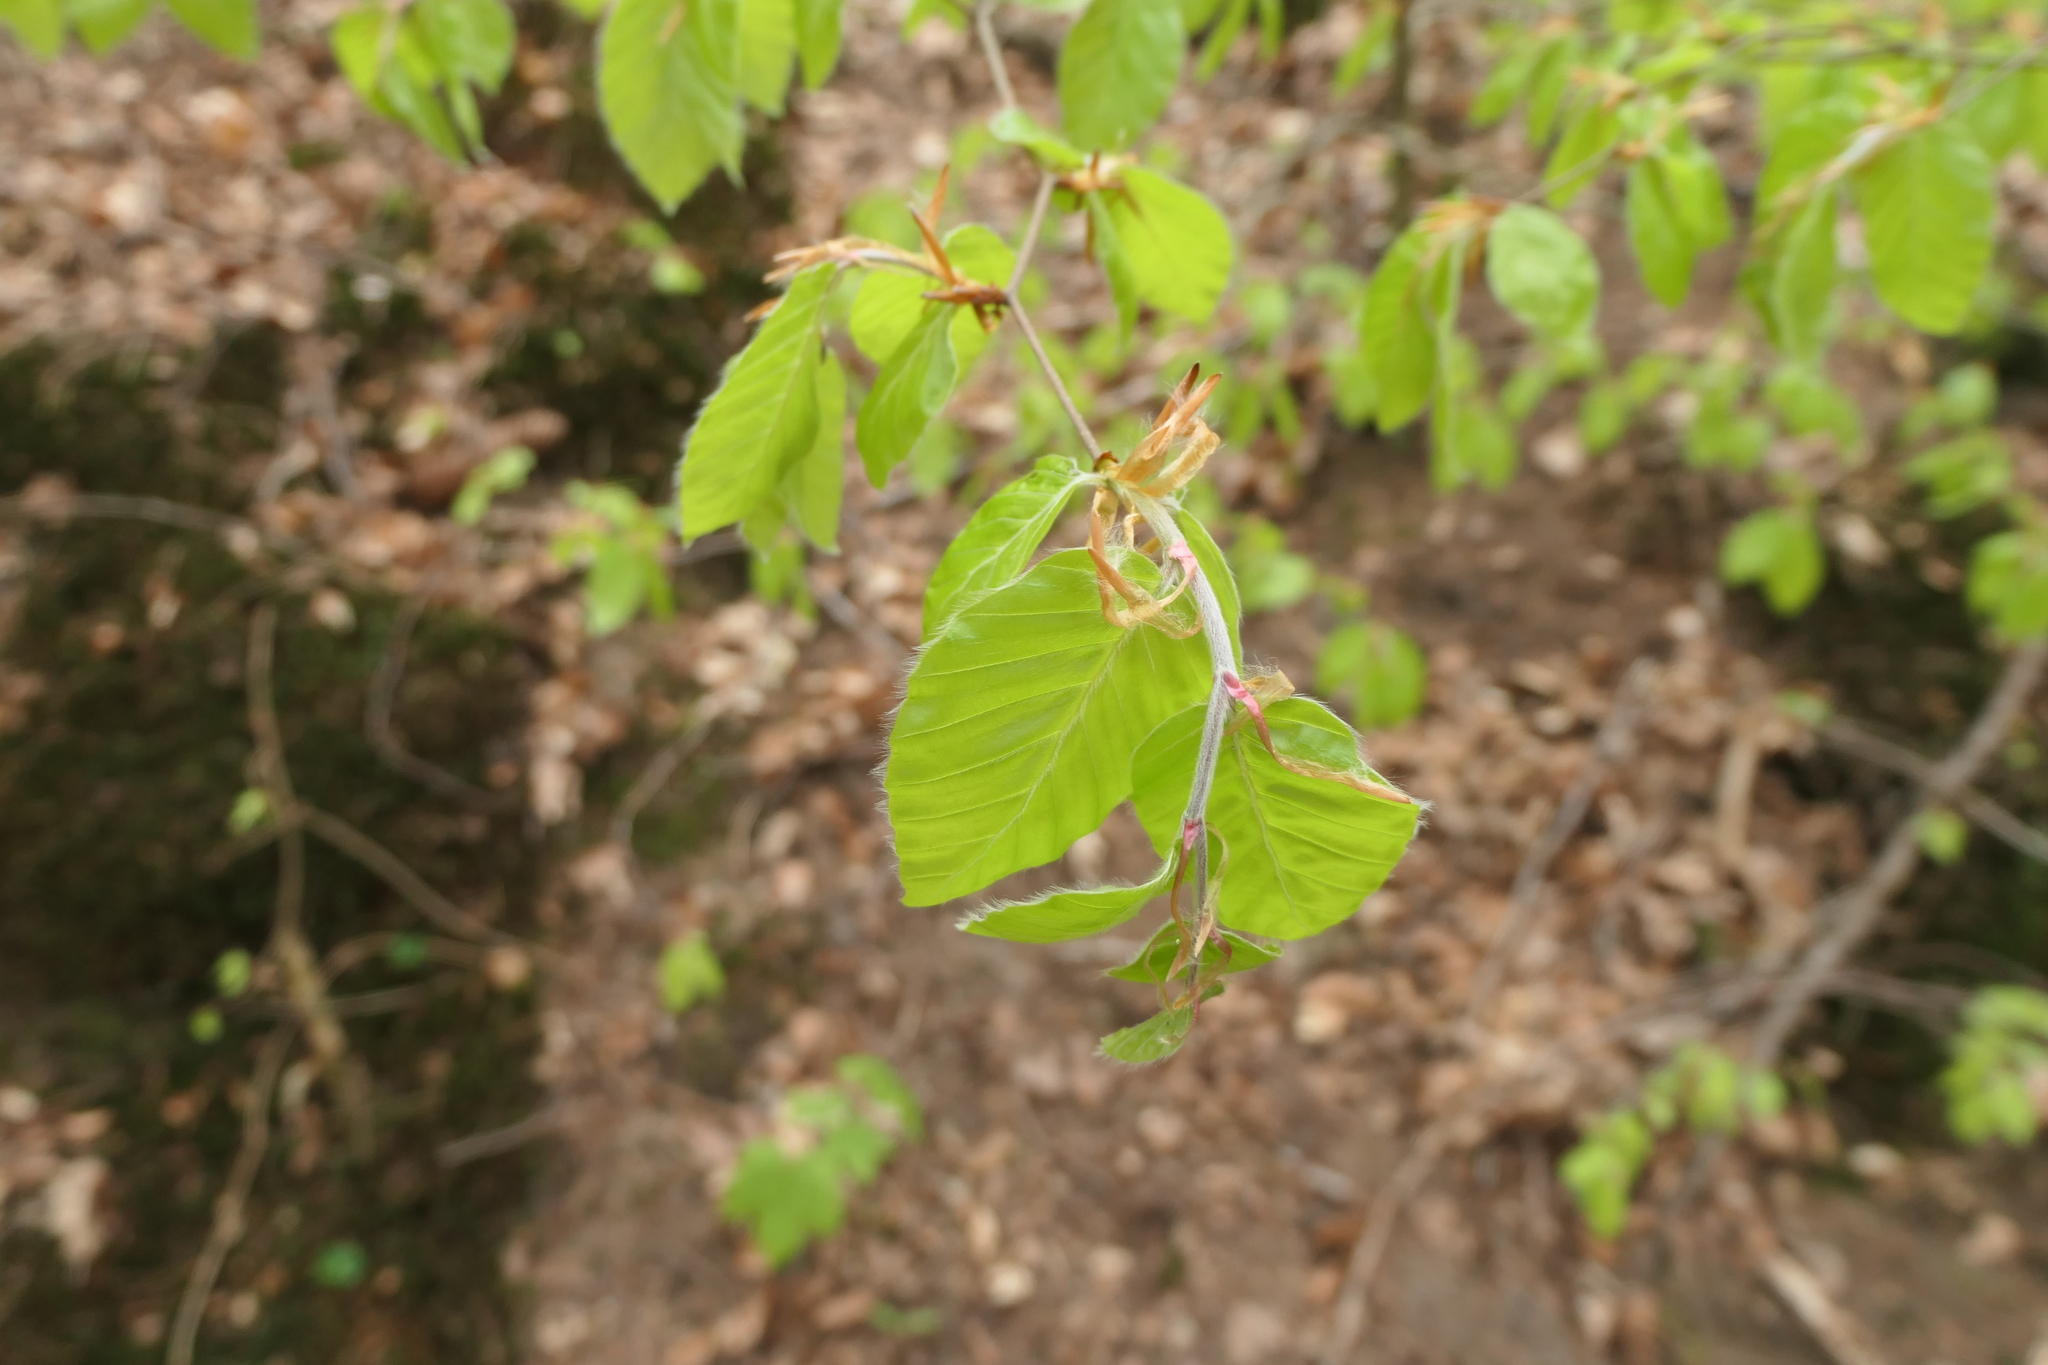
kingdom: Plantae
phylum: Tracheophyta
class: Magnoliopsida
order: Fagales
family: Fagaceae
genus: Fagus
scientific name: Fagus sylvatica
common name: Beech
